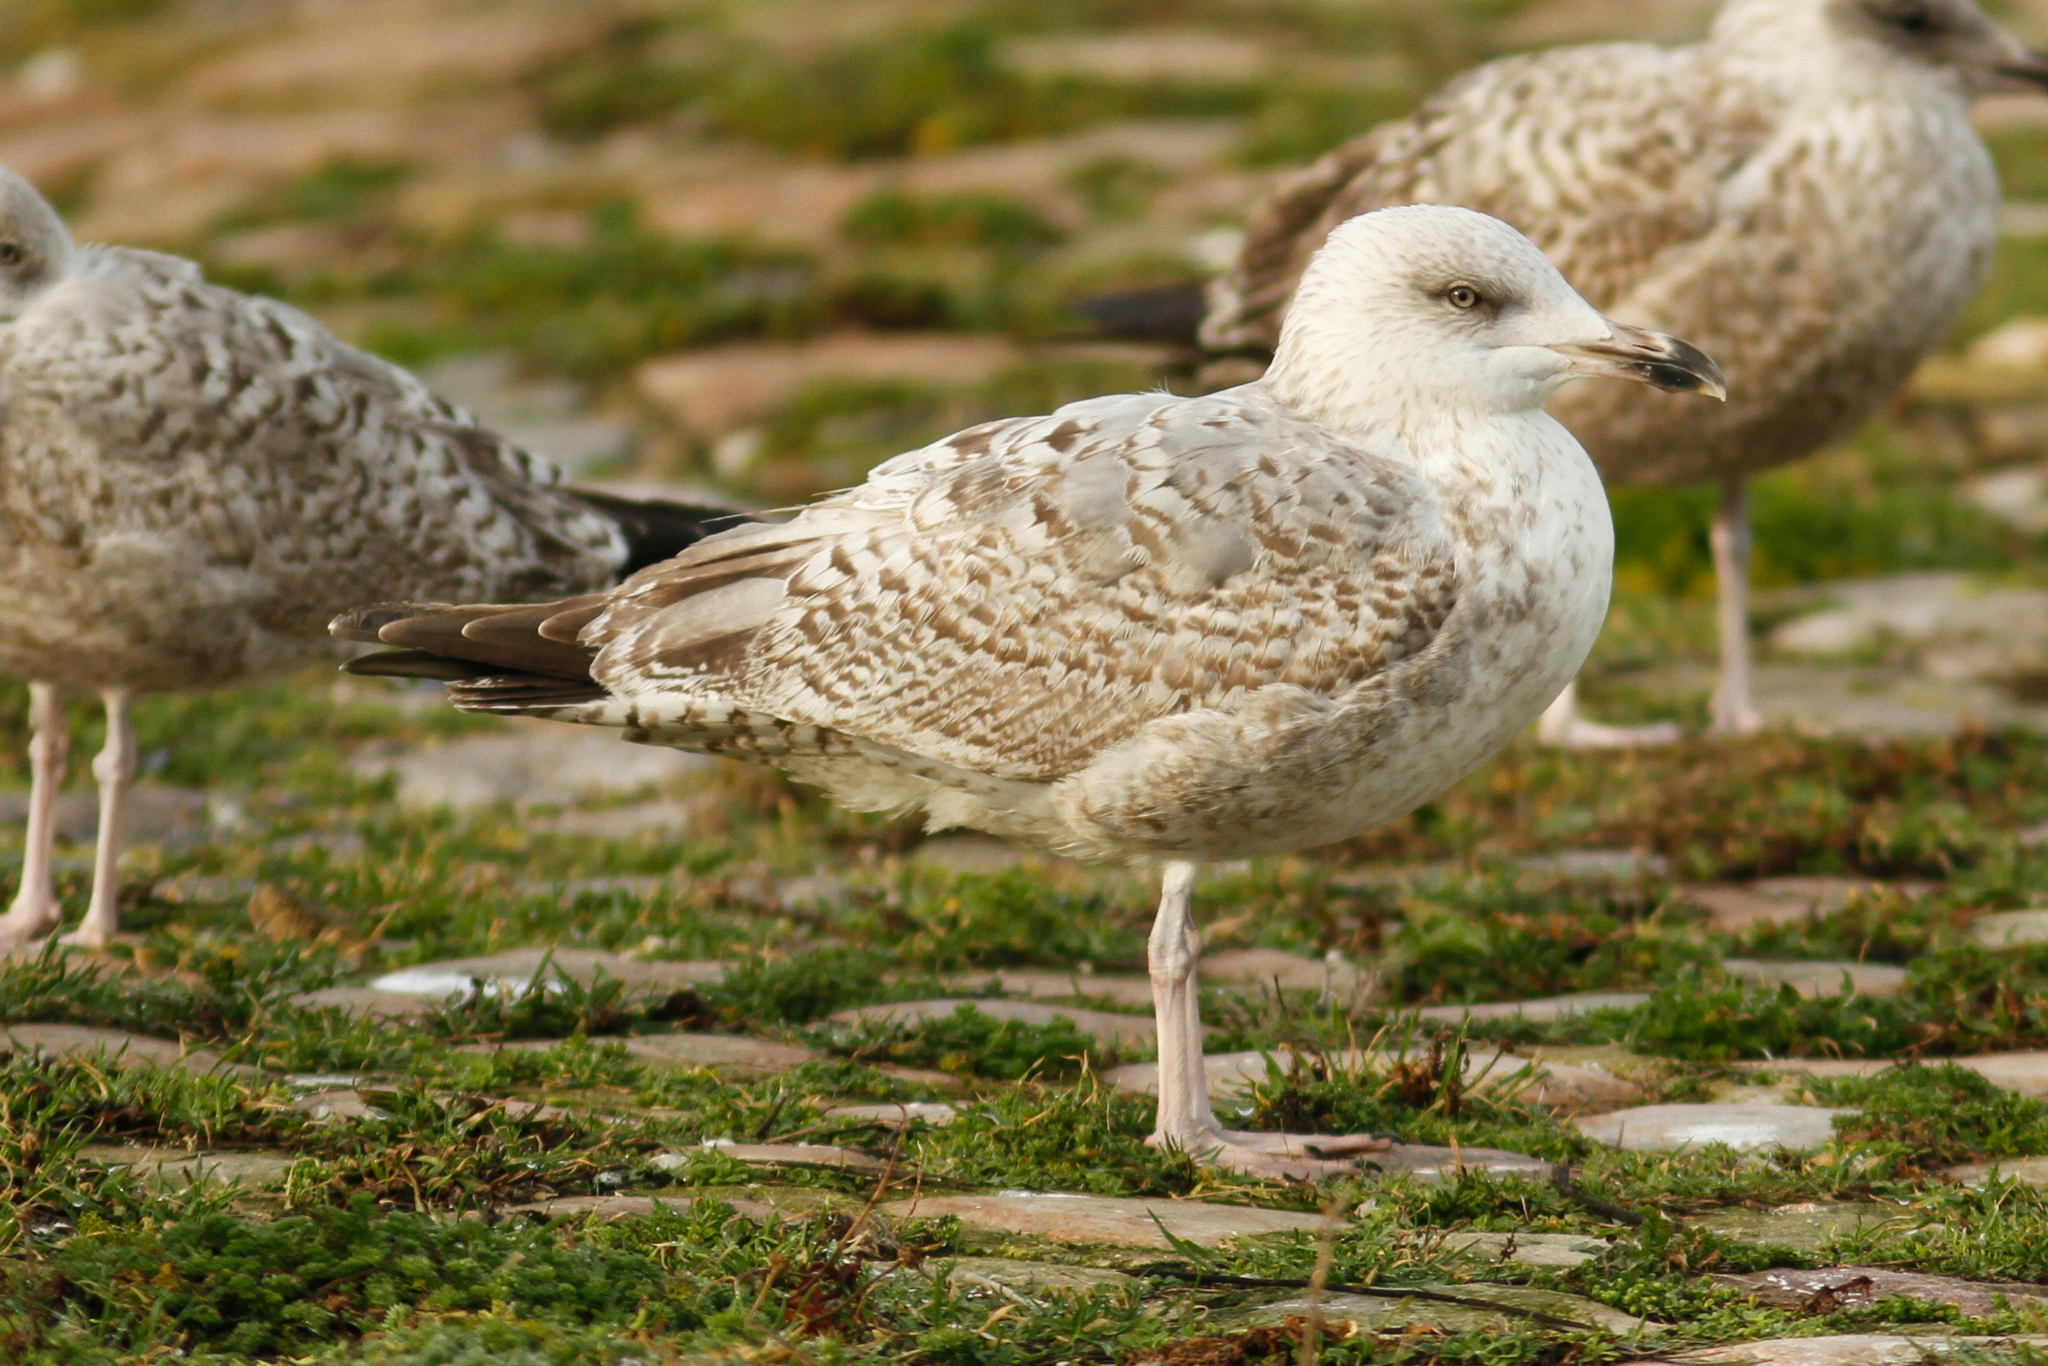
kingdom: Animalia
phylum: Chordata
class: Aves
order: Charadriiformes
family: Laridae
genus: Larus
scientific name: Larus argentatus
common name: Herring gull
